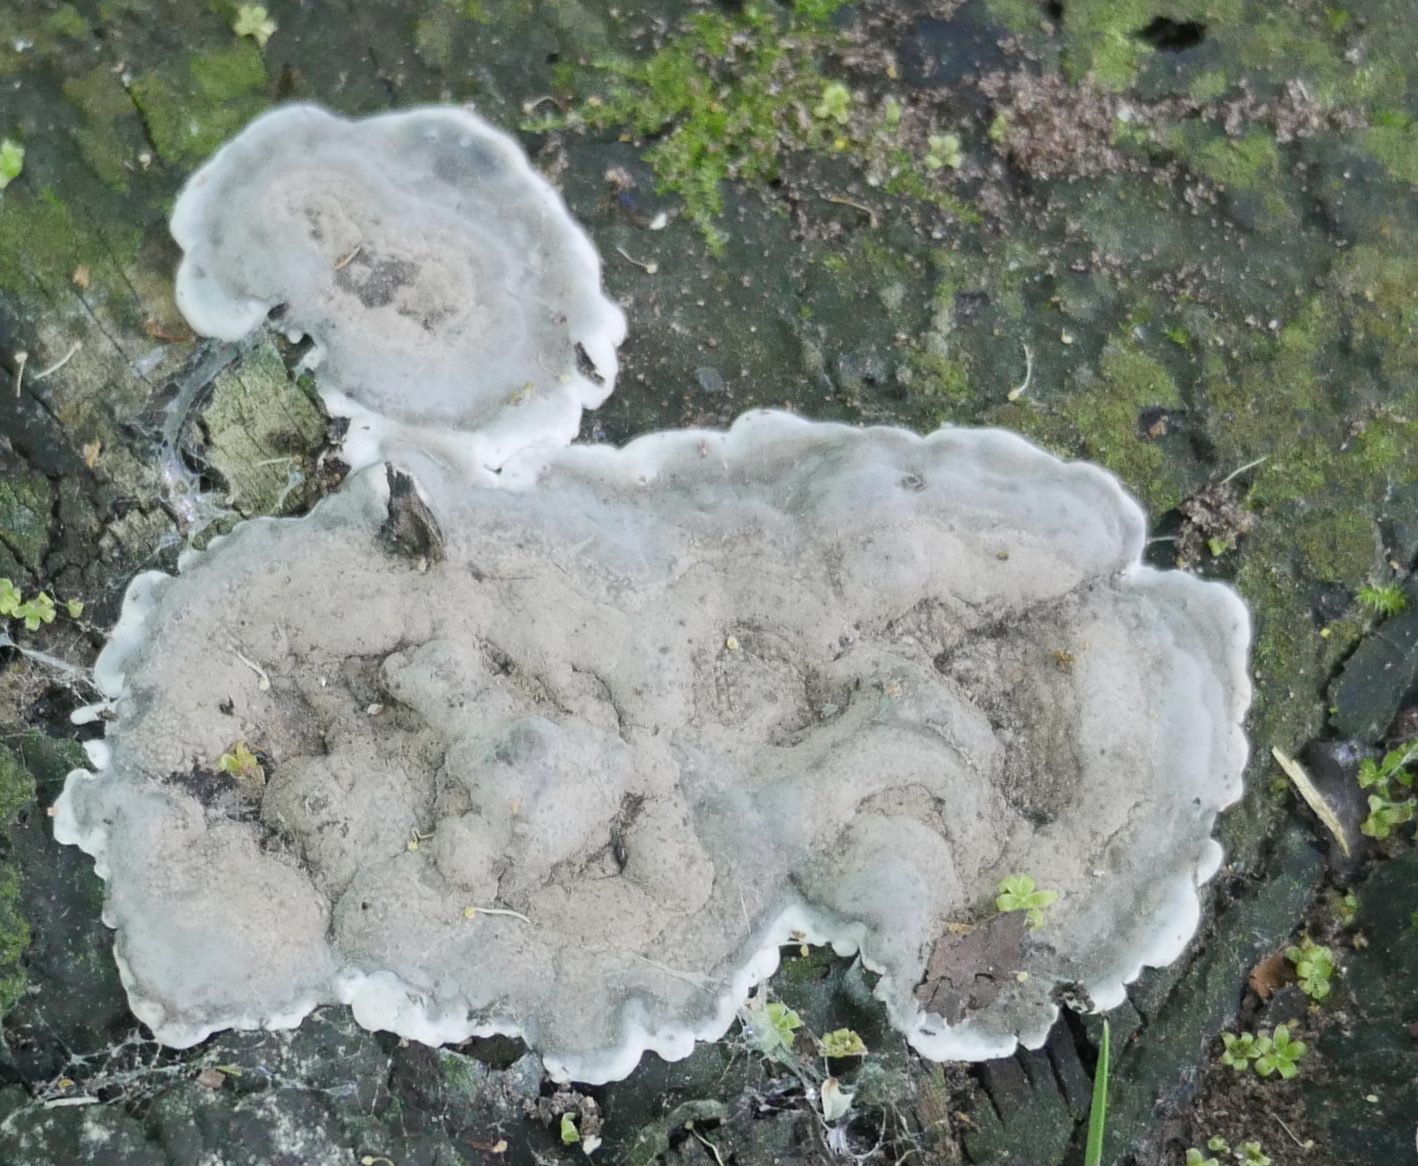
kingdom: Fungi
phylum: Ascomycota
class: Sordariomycetes
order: Xylariales
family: Xylariaceae
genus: Kretzschmaria
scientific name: Kretzschmaria deusta
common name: Brittle cinder
